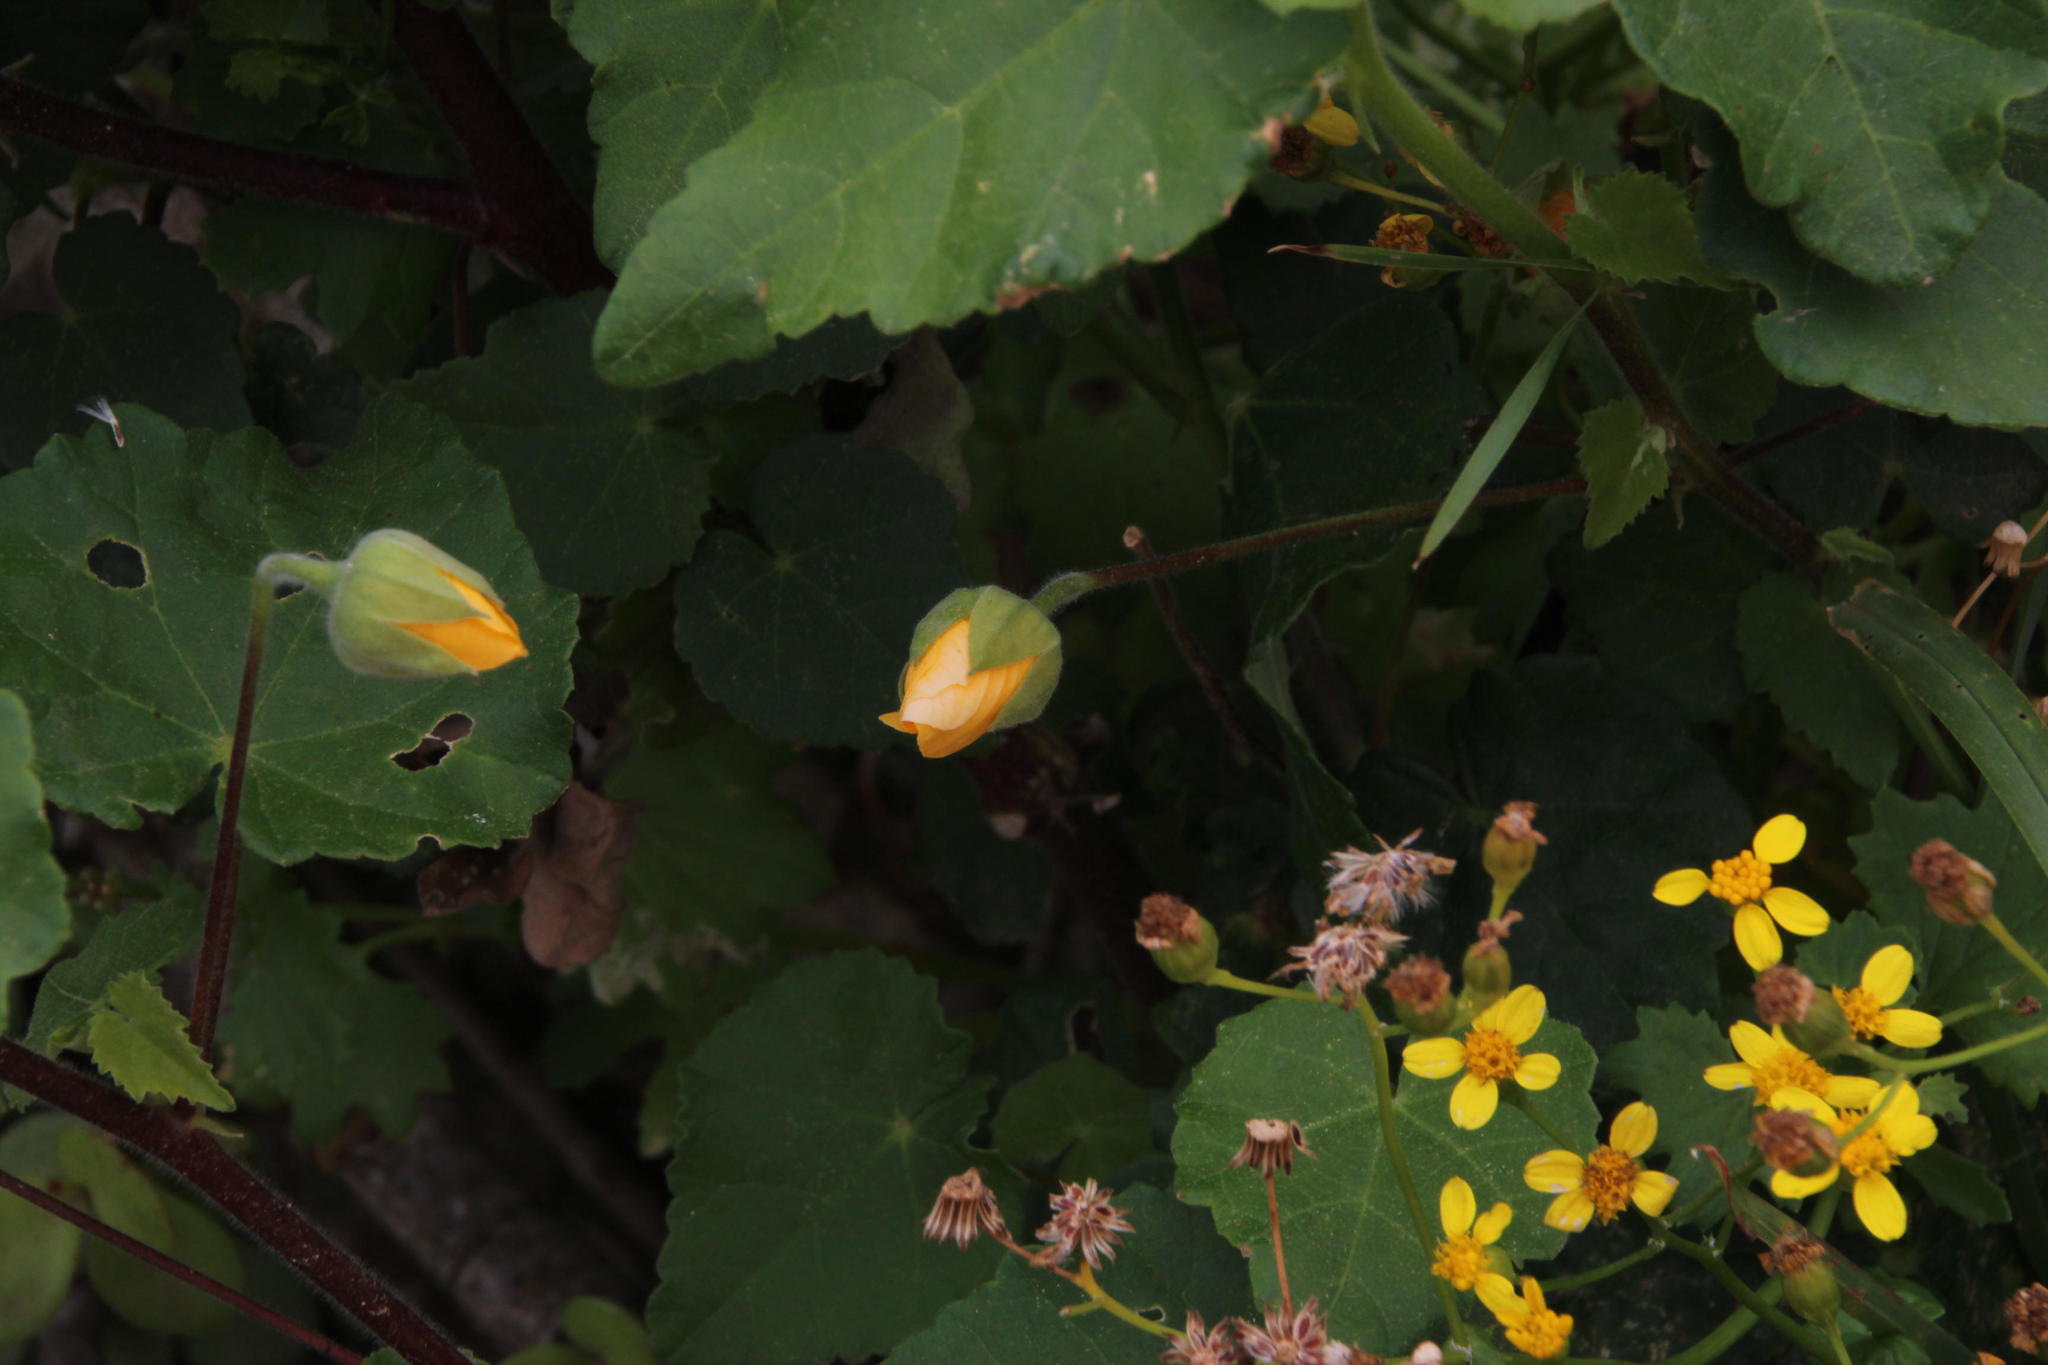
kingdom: Plantae
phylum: Tracheophyta
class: Magnoliopsida
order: Malvales
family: Malvaceae
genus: Abutilon
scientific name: Abutilon sonneratianum
